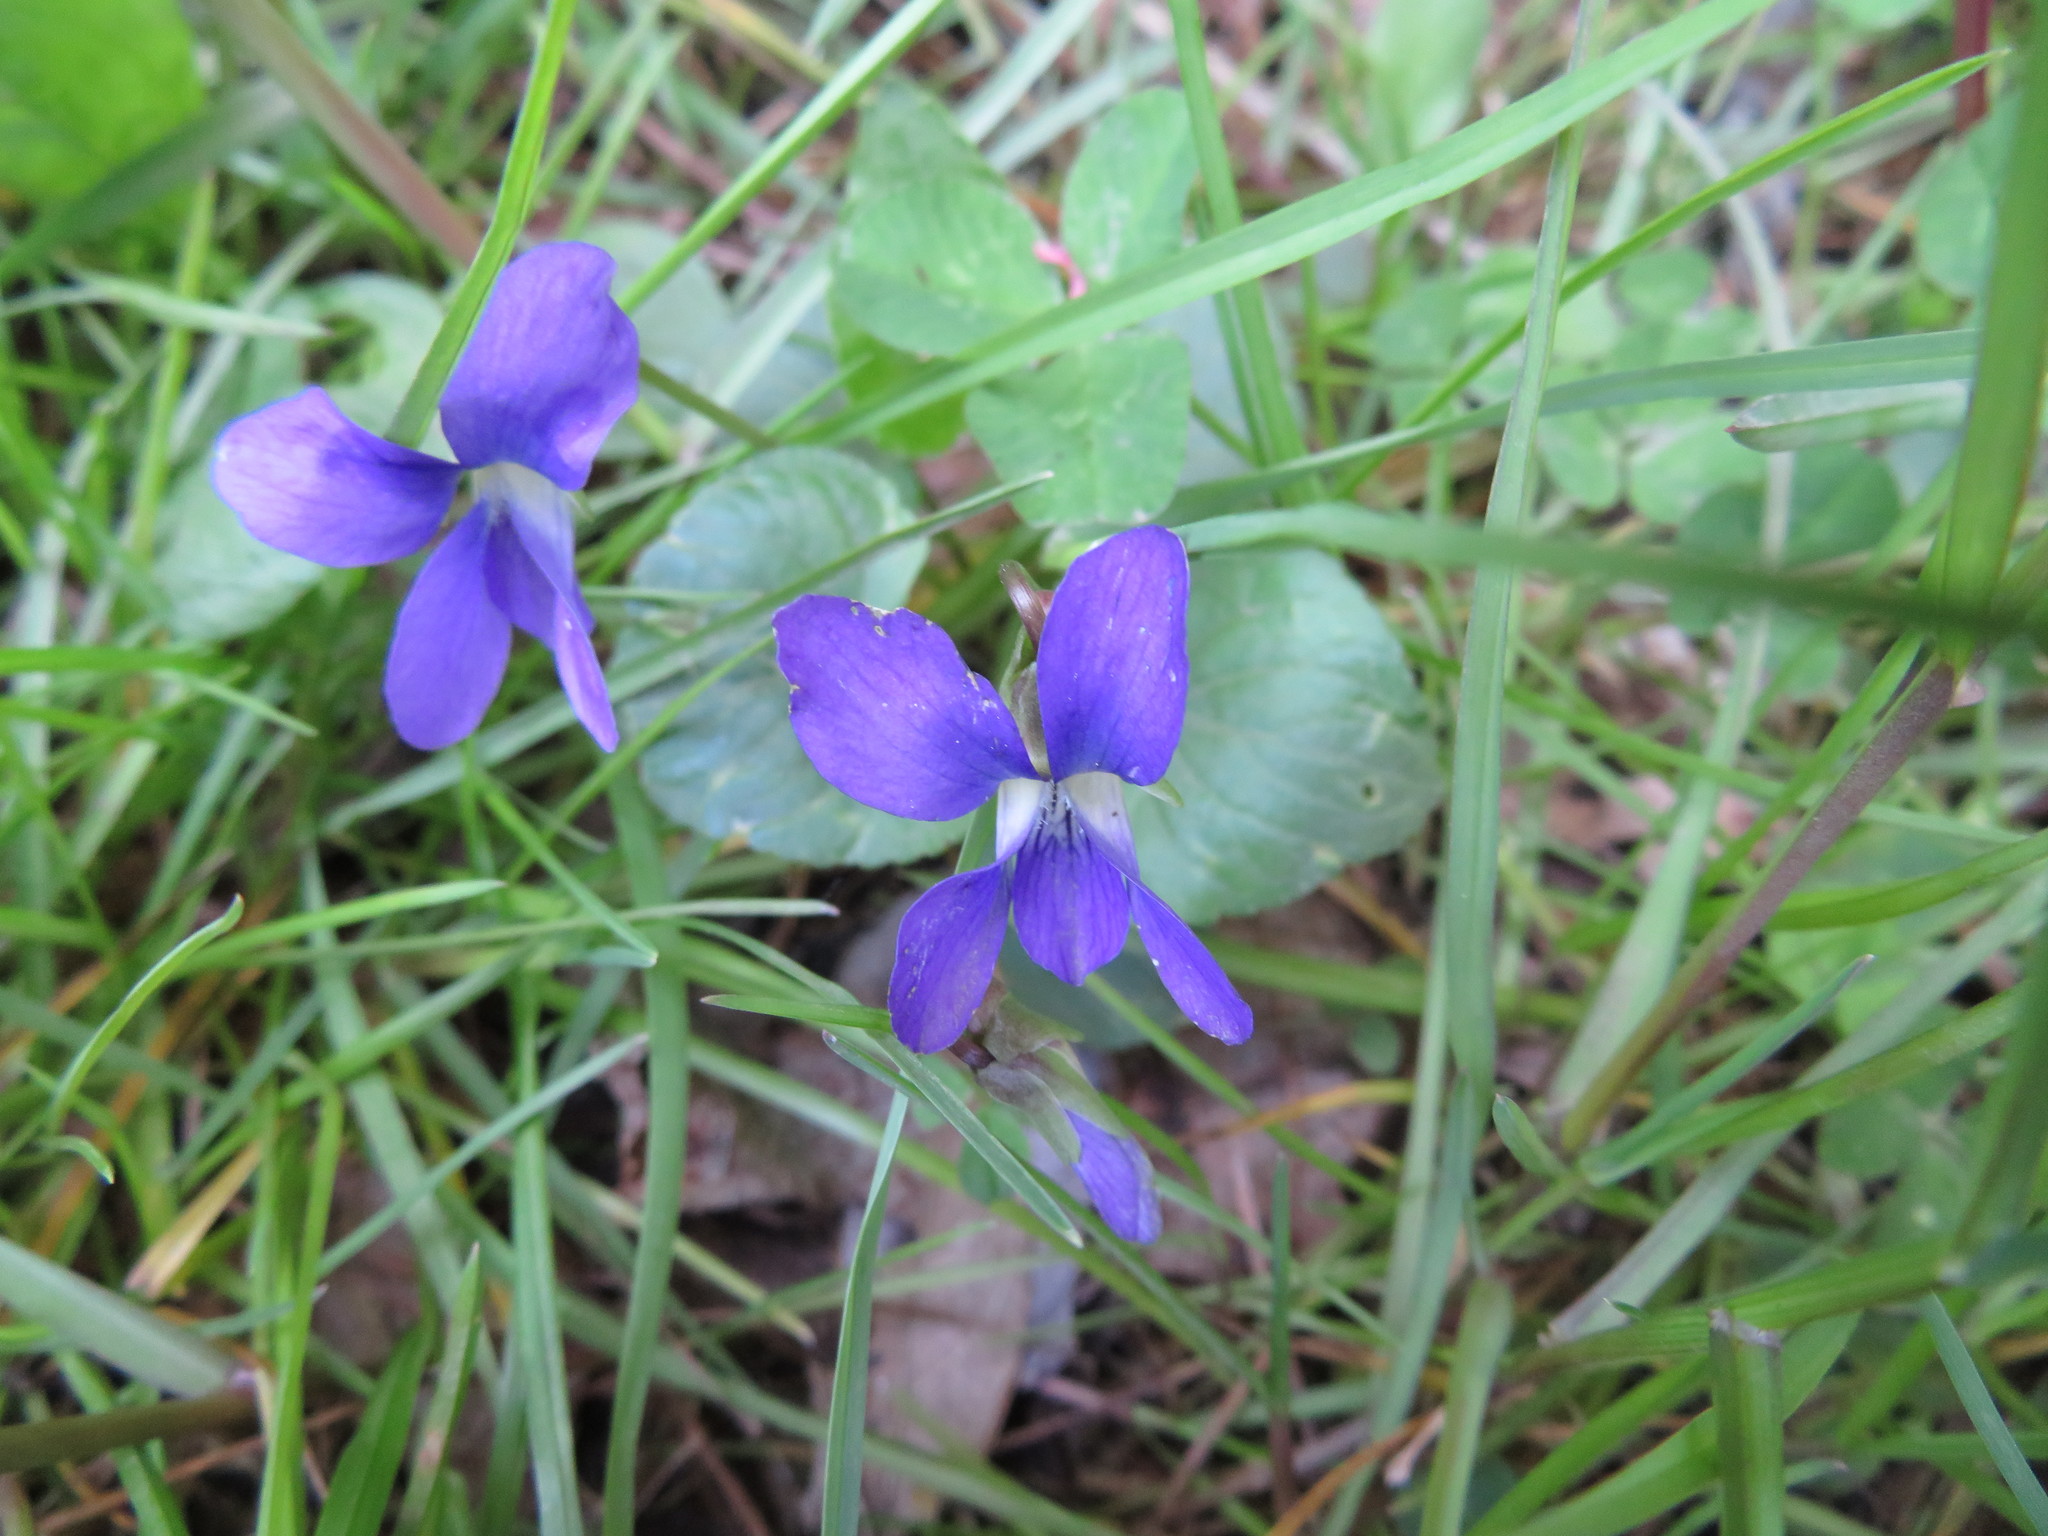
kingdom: Plantae
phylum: Tracheophyta
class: Magnoliopsida
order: Malpighiales
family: Violaceae
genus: Viola
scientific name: Viola sororia
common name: Dooryard violet
